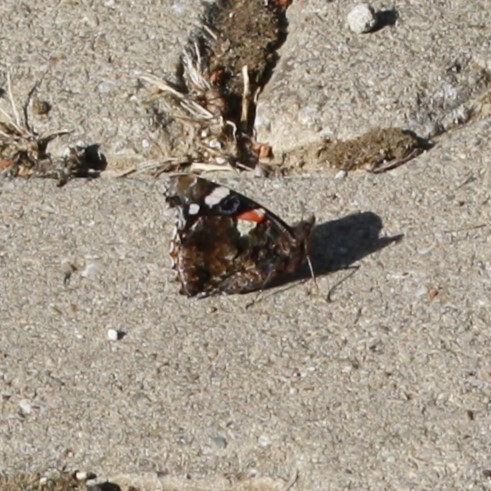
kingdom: Animalia
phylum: Arthropoda
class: Insecta
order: Lepidoptera
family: Nymphalidae
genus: Vanessa
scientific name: Vanessa atalanta
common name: Red admiral
